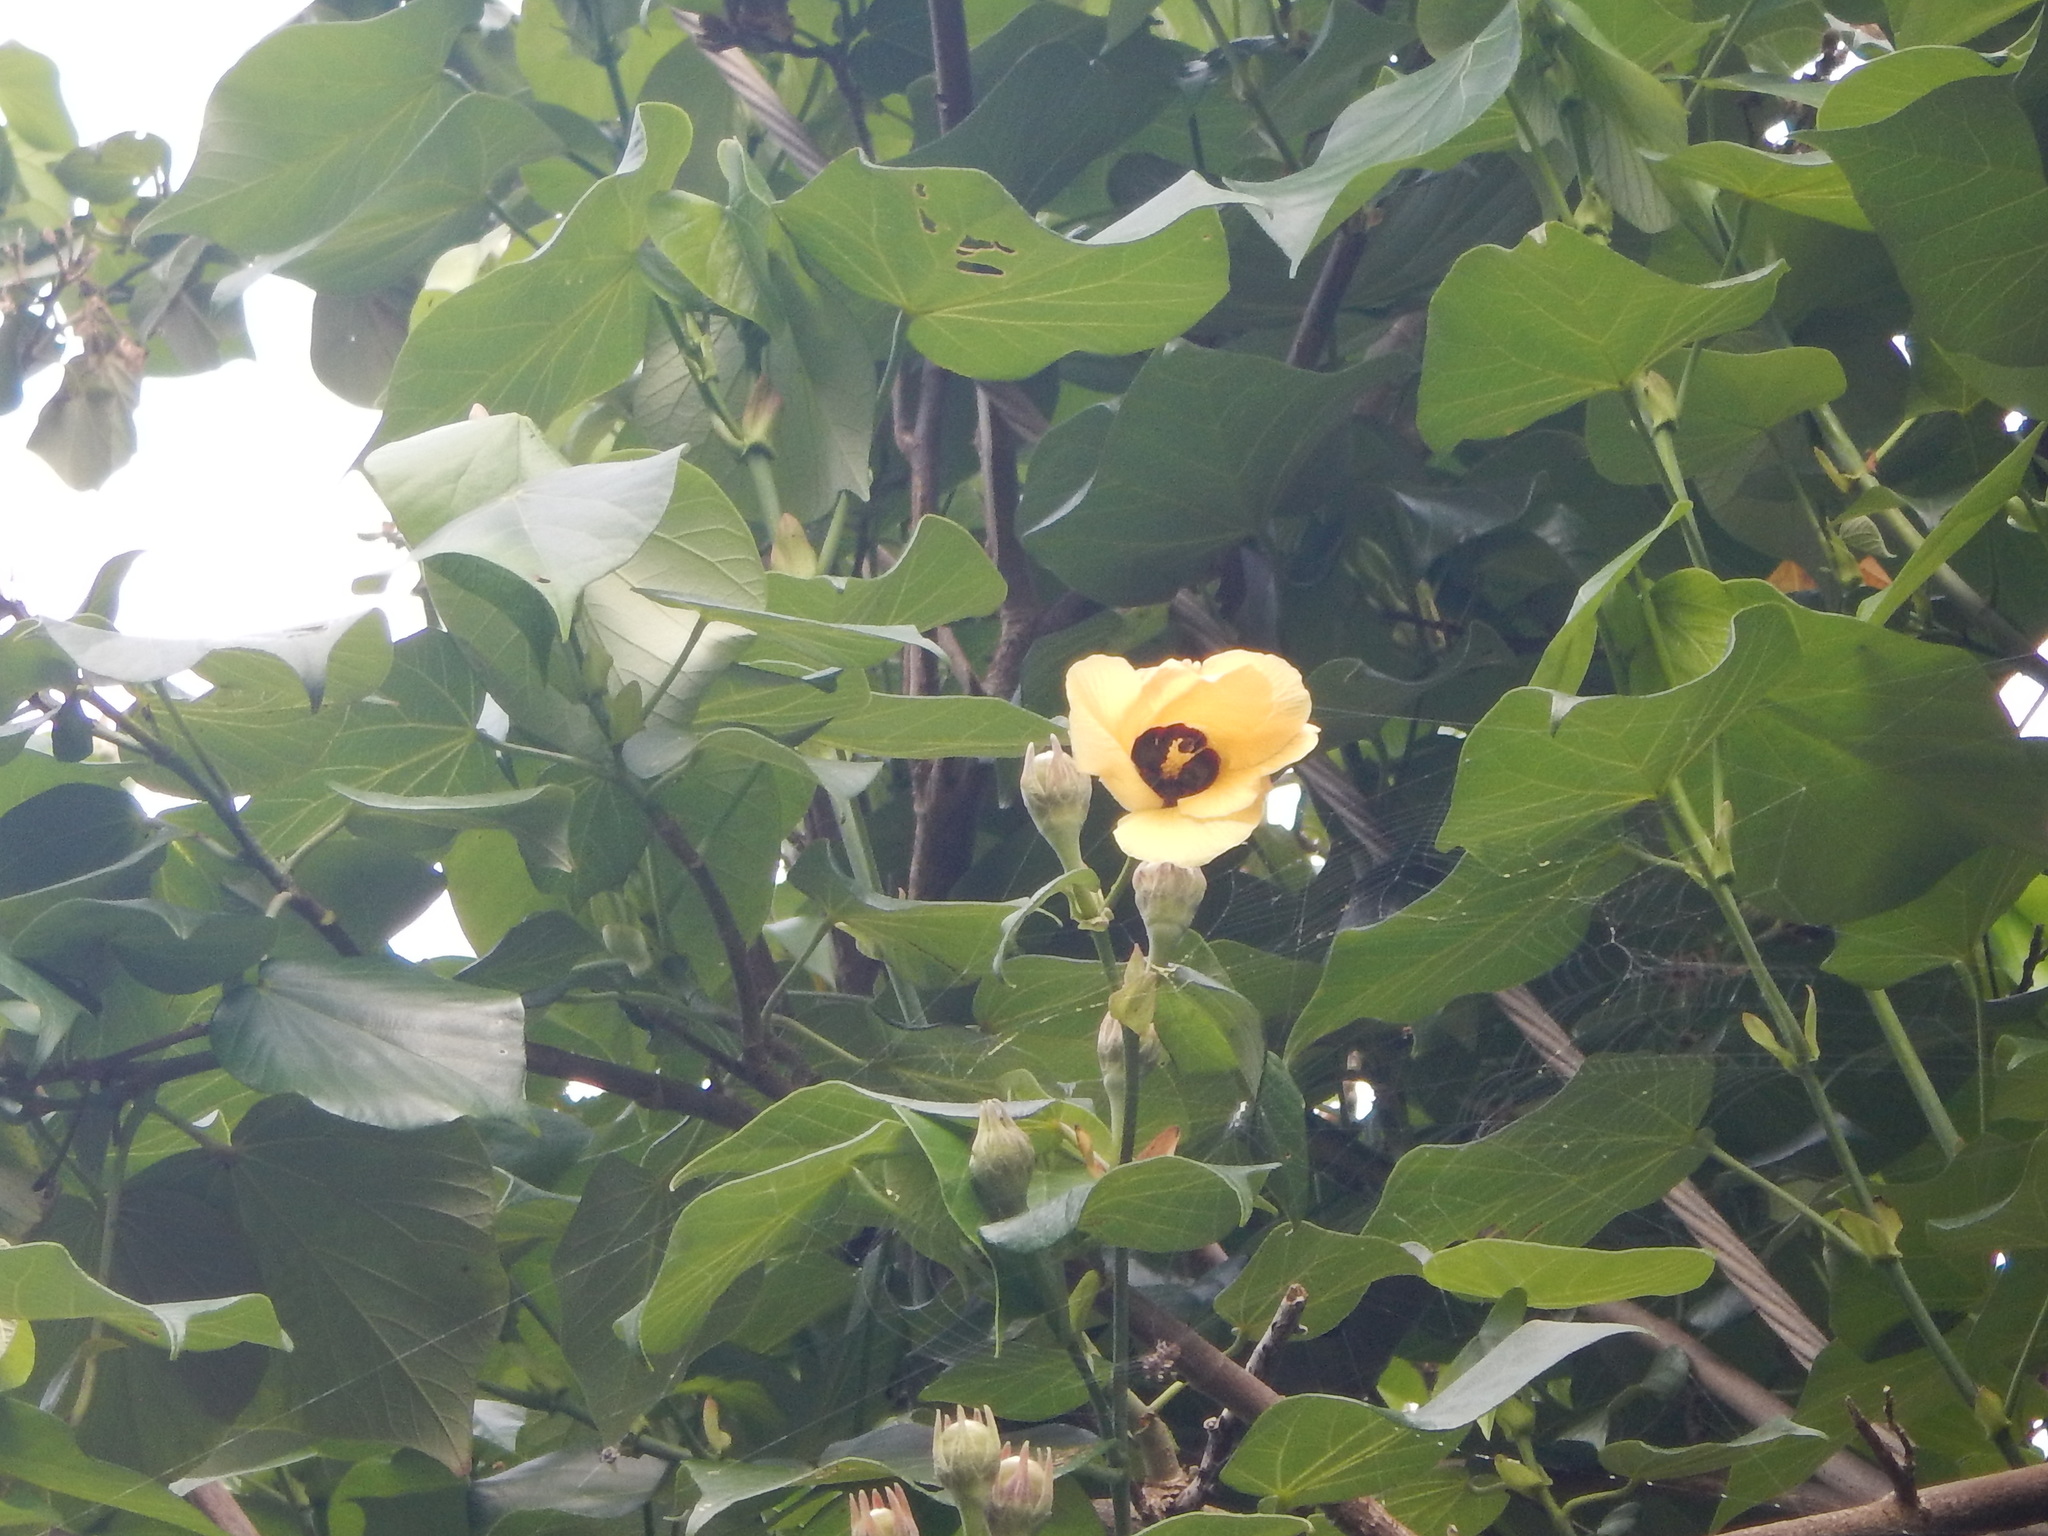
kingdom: Plantae
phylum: Tracheophyta
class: Magnoliopsida
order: Malvales
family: Malvaceae
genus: Talipariti
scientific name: Talipariti tiliaceum
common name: Sea hibiscus
